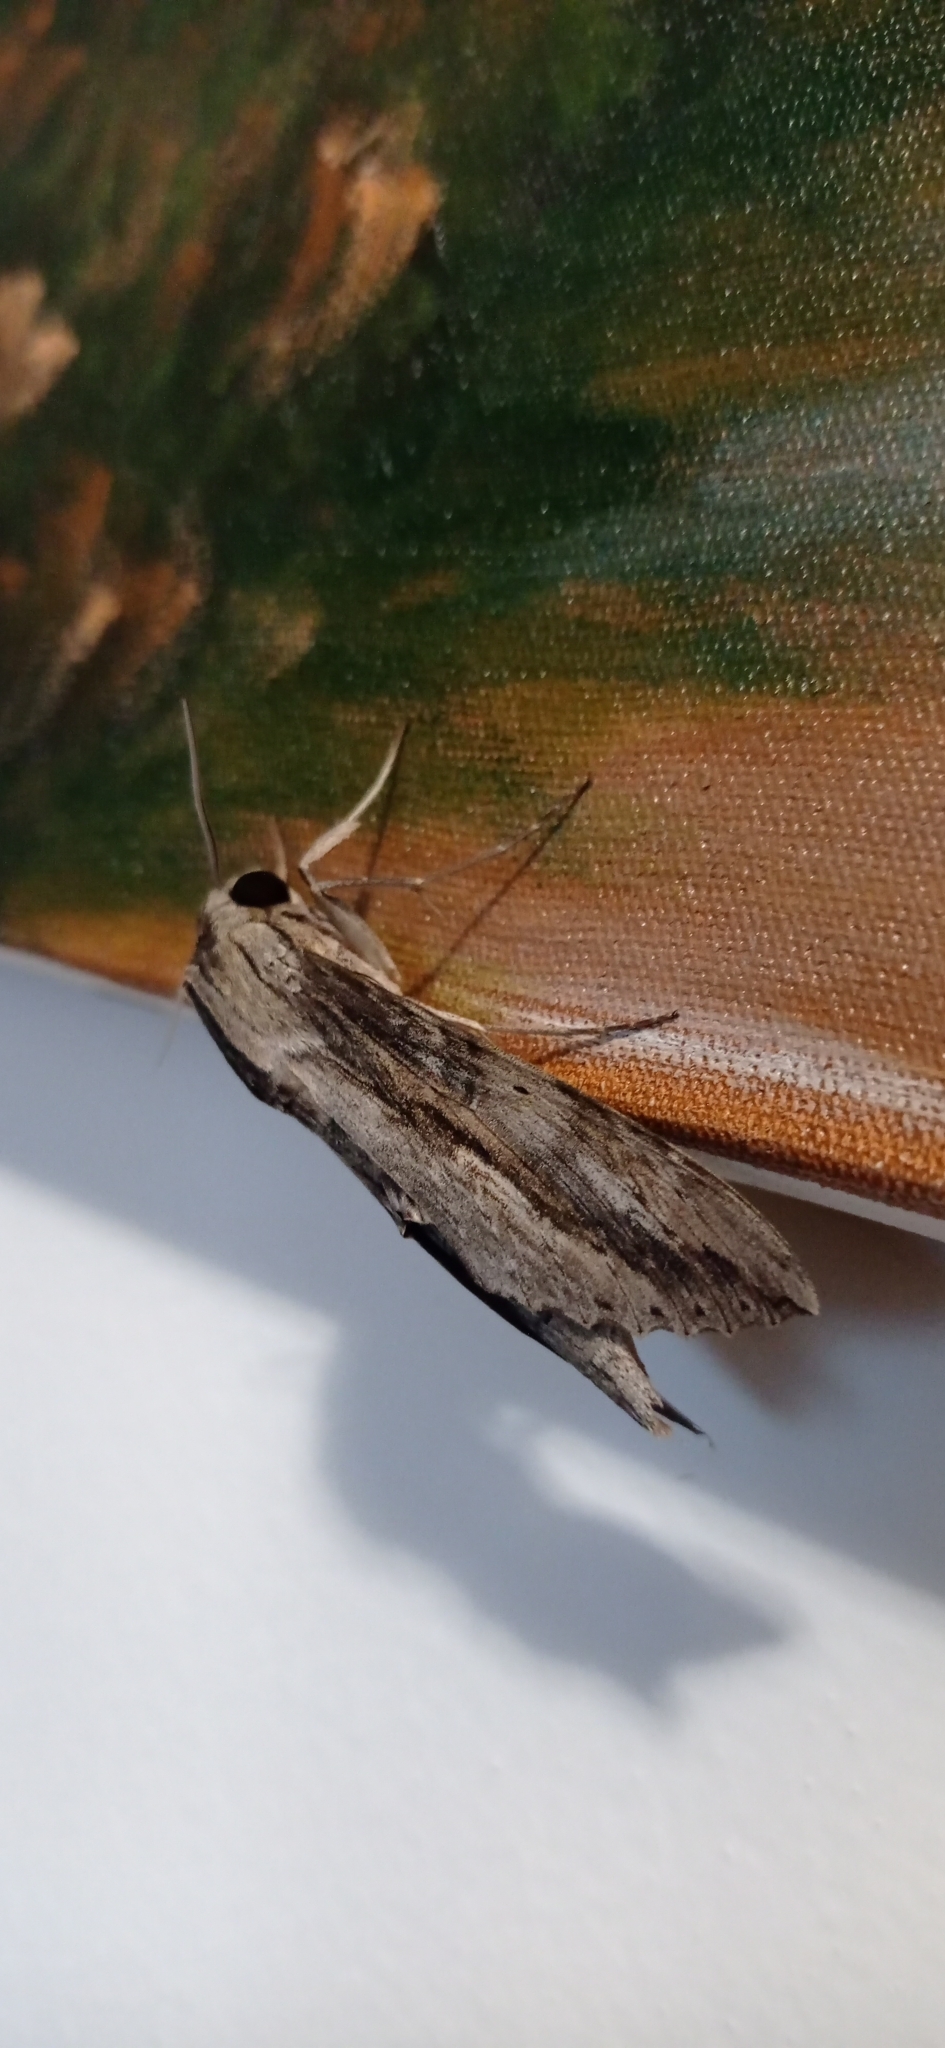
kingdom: Animalia
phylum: Arthropoda
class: Insecta
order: Lepidoptera
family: Sphingidae
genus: Erinnyis
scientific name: Erinnyis ello
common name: Ello sphinx
